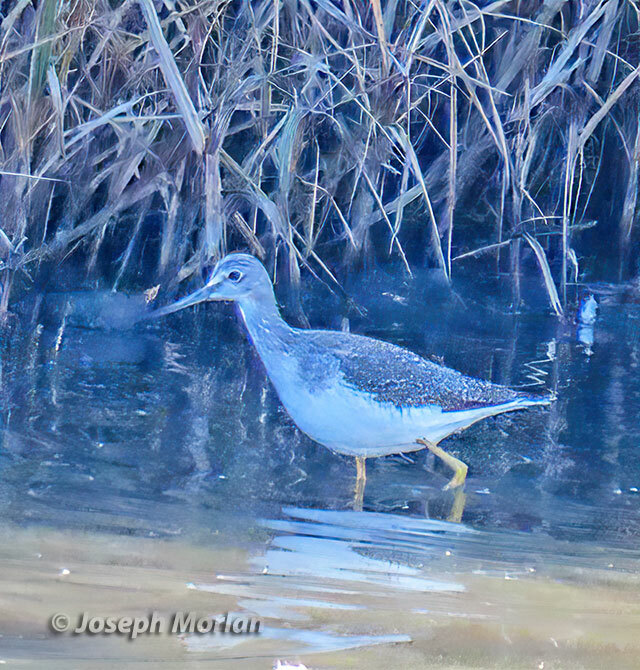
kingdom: Animalia
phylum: Chordata
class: Aves
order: Charadriiformes
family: Scolopacidae
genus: Tringa
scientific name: Tringa melanoleuca
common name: Greater yellowlegs
